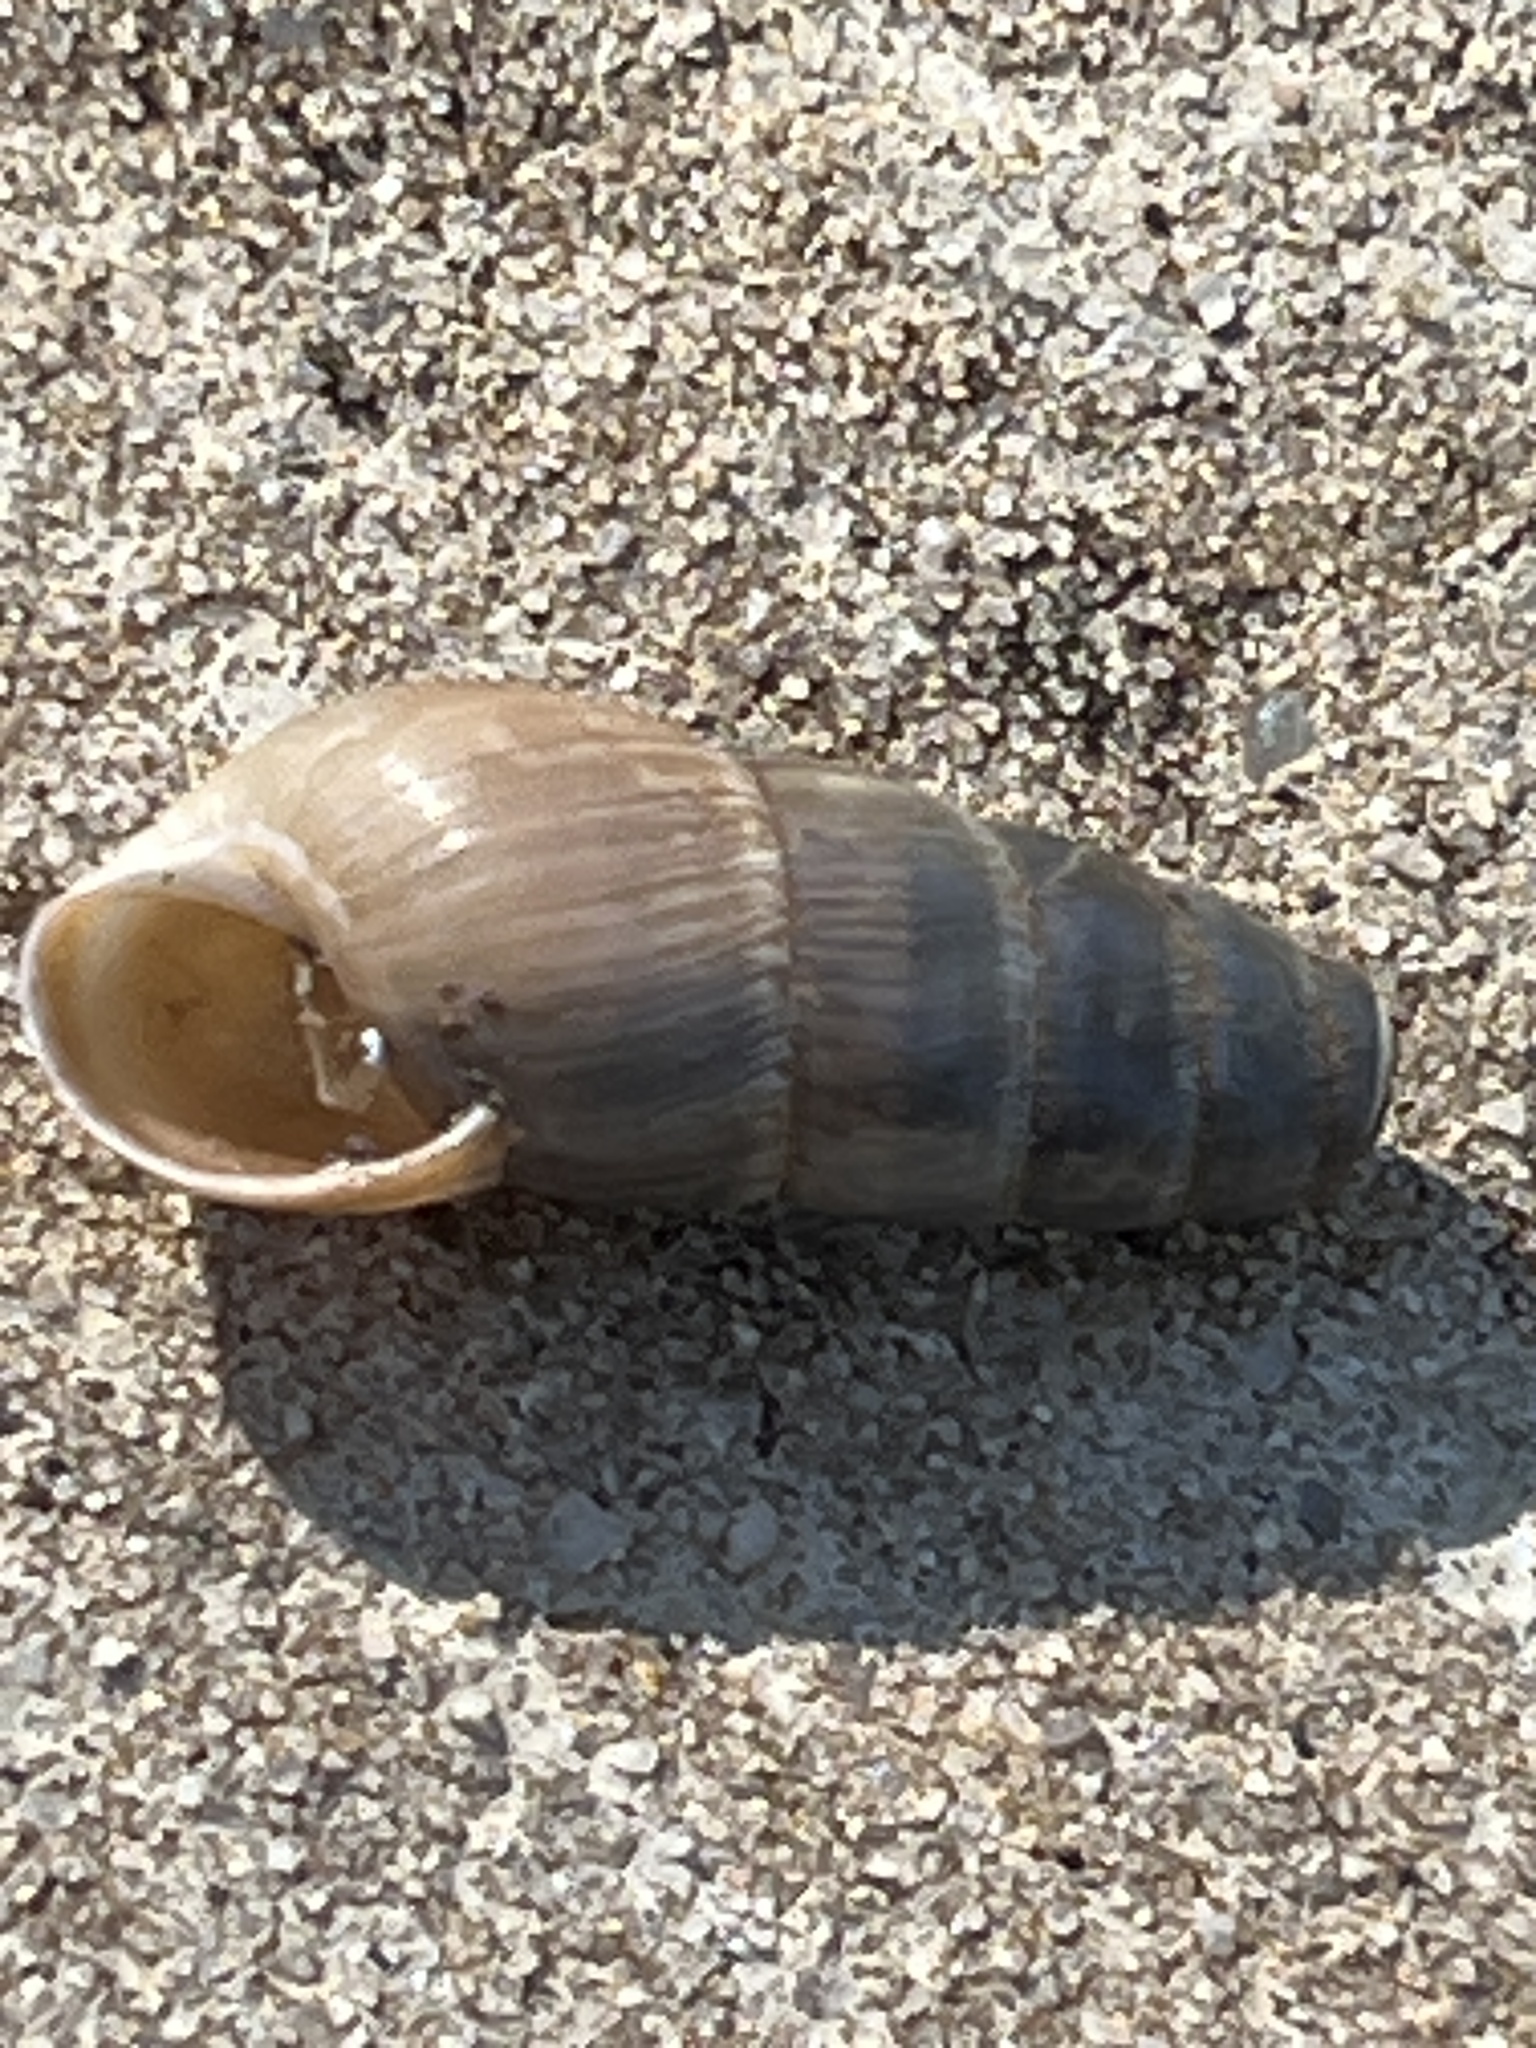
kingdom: Animalia
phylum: Mollusca
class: Gastropoda
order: Stylommatophora
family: Achatinidae
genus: Rumina
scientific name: Rumina decollata
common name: Decollate snail
